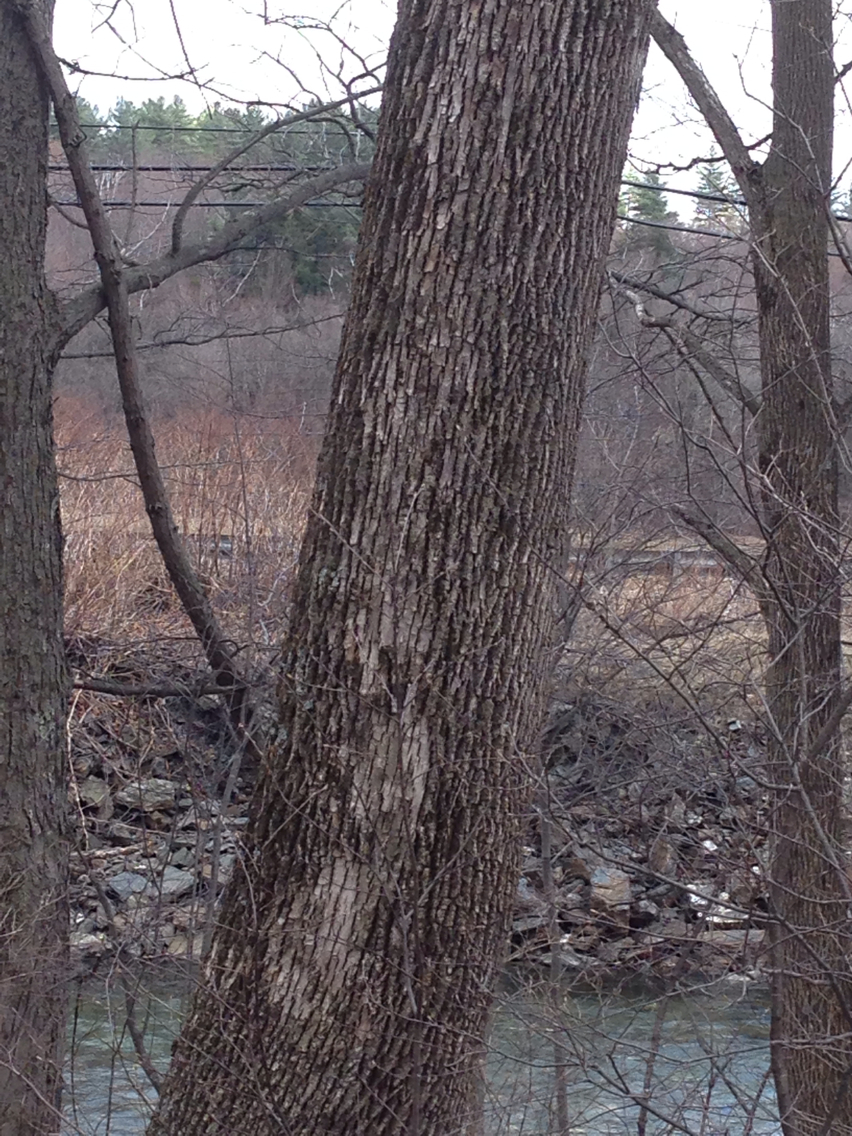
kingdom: Plantae
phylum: Tracheophyta
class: Magnoliopsida
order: Lamiales
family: Oleaceae
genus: Fraxinus
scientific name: Fraxinus americana
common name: White ash
